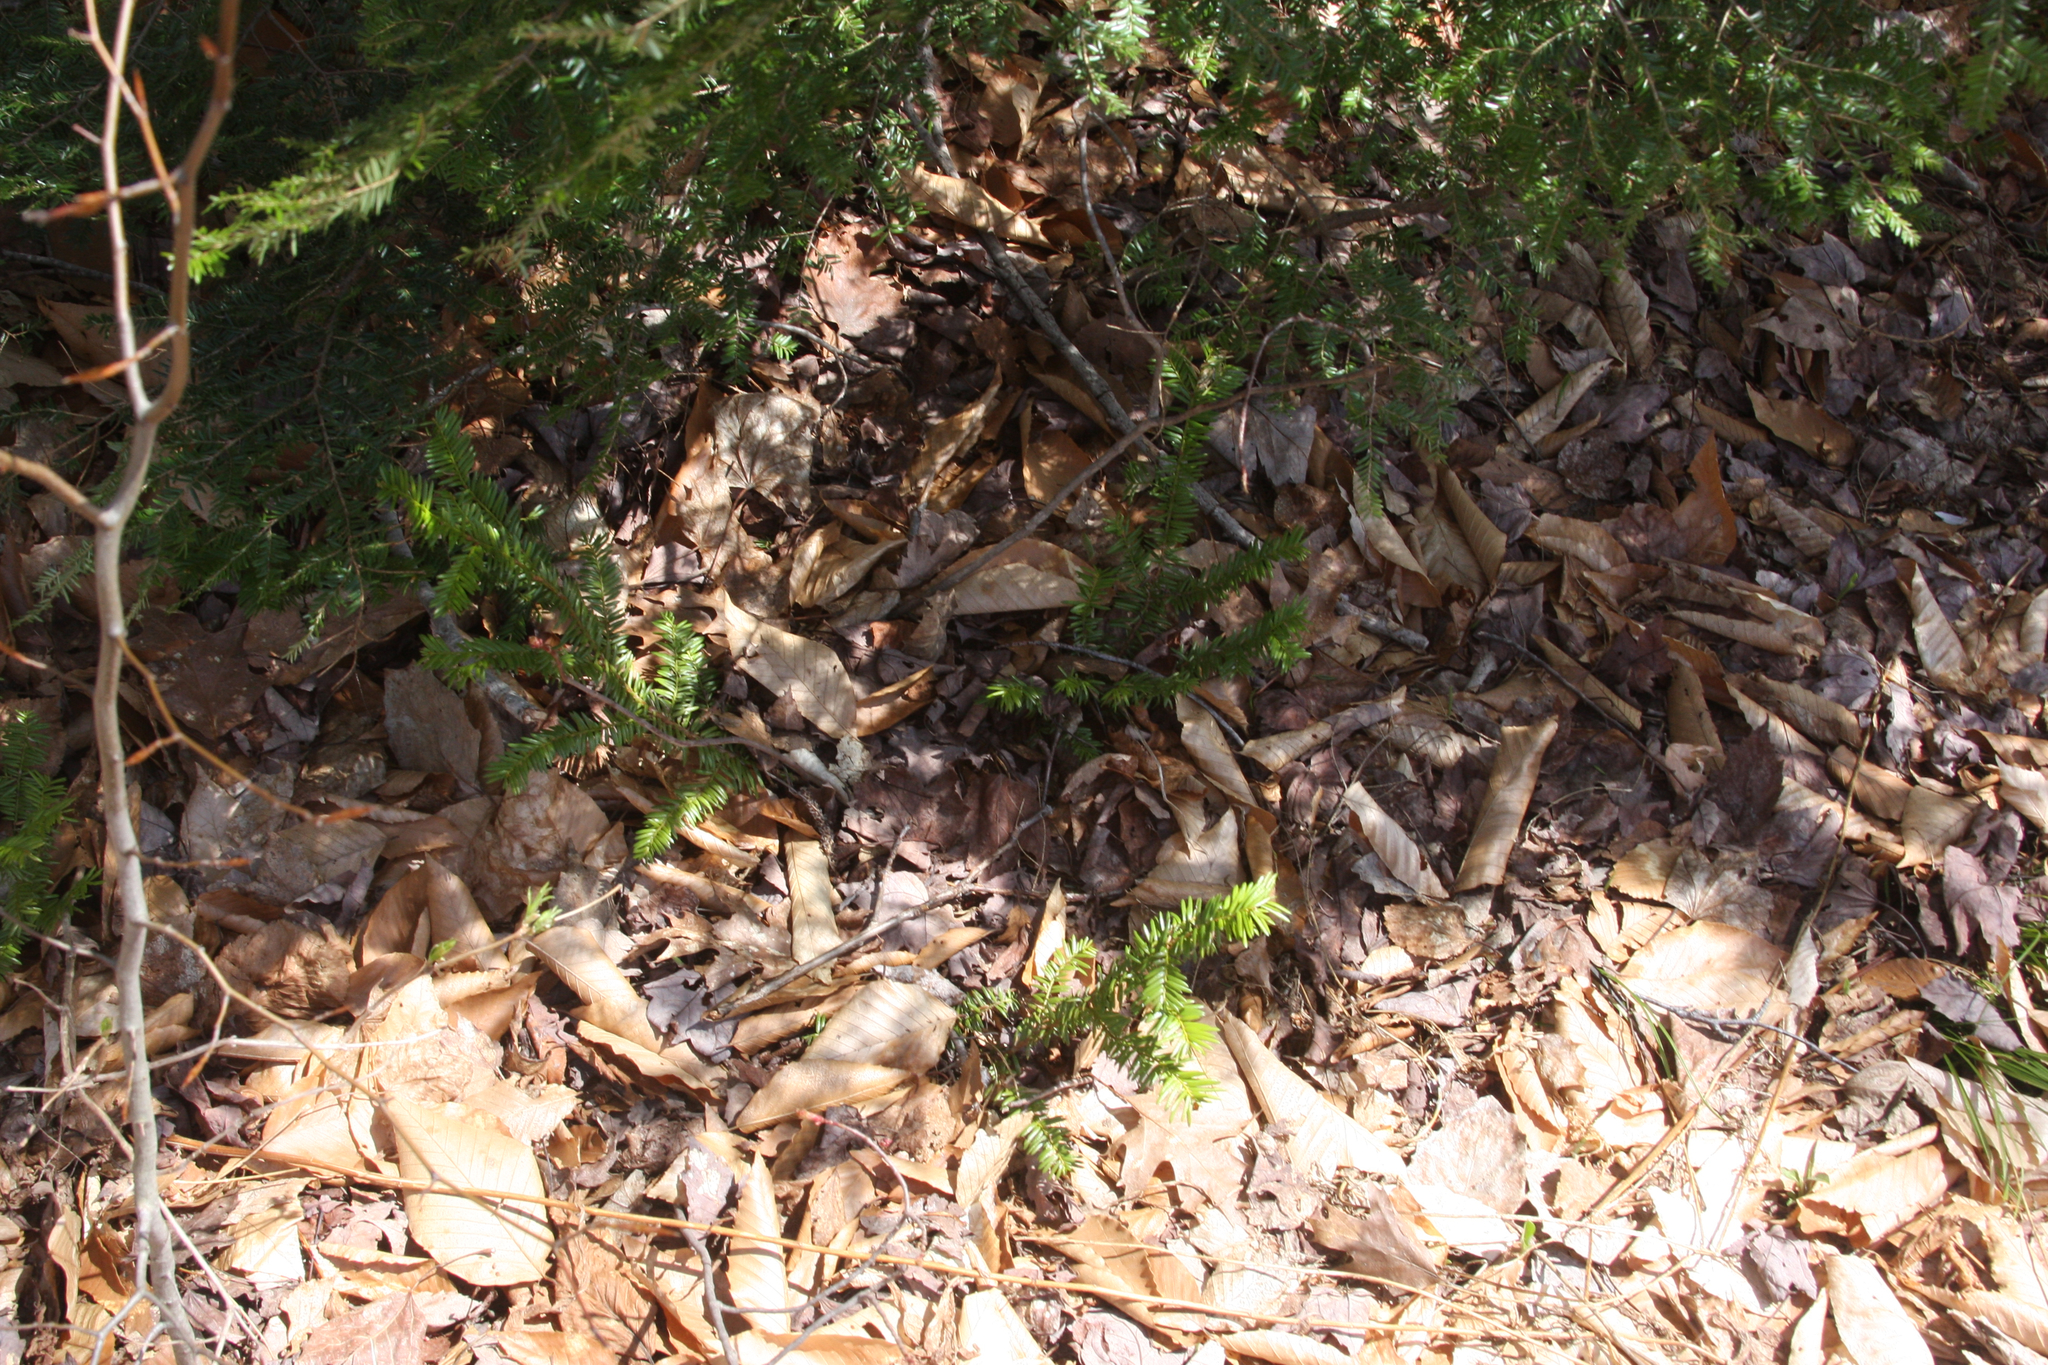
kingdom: Plantae
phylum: Tracheophyta
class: Pinopsida
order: Pinales
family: Taxaceae
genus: Taxus
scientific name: Taxus canadensis
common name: American yew
